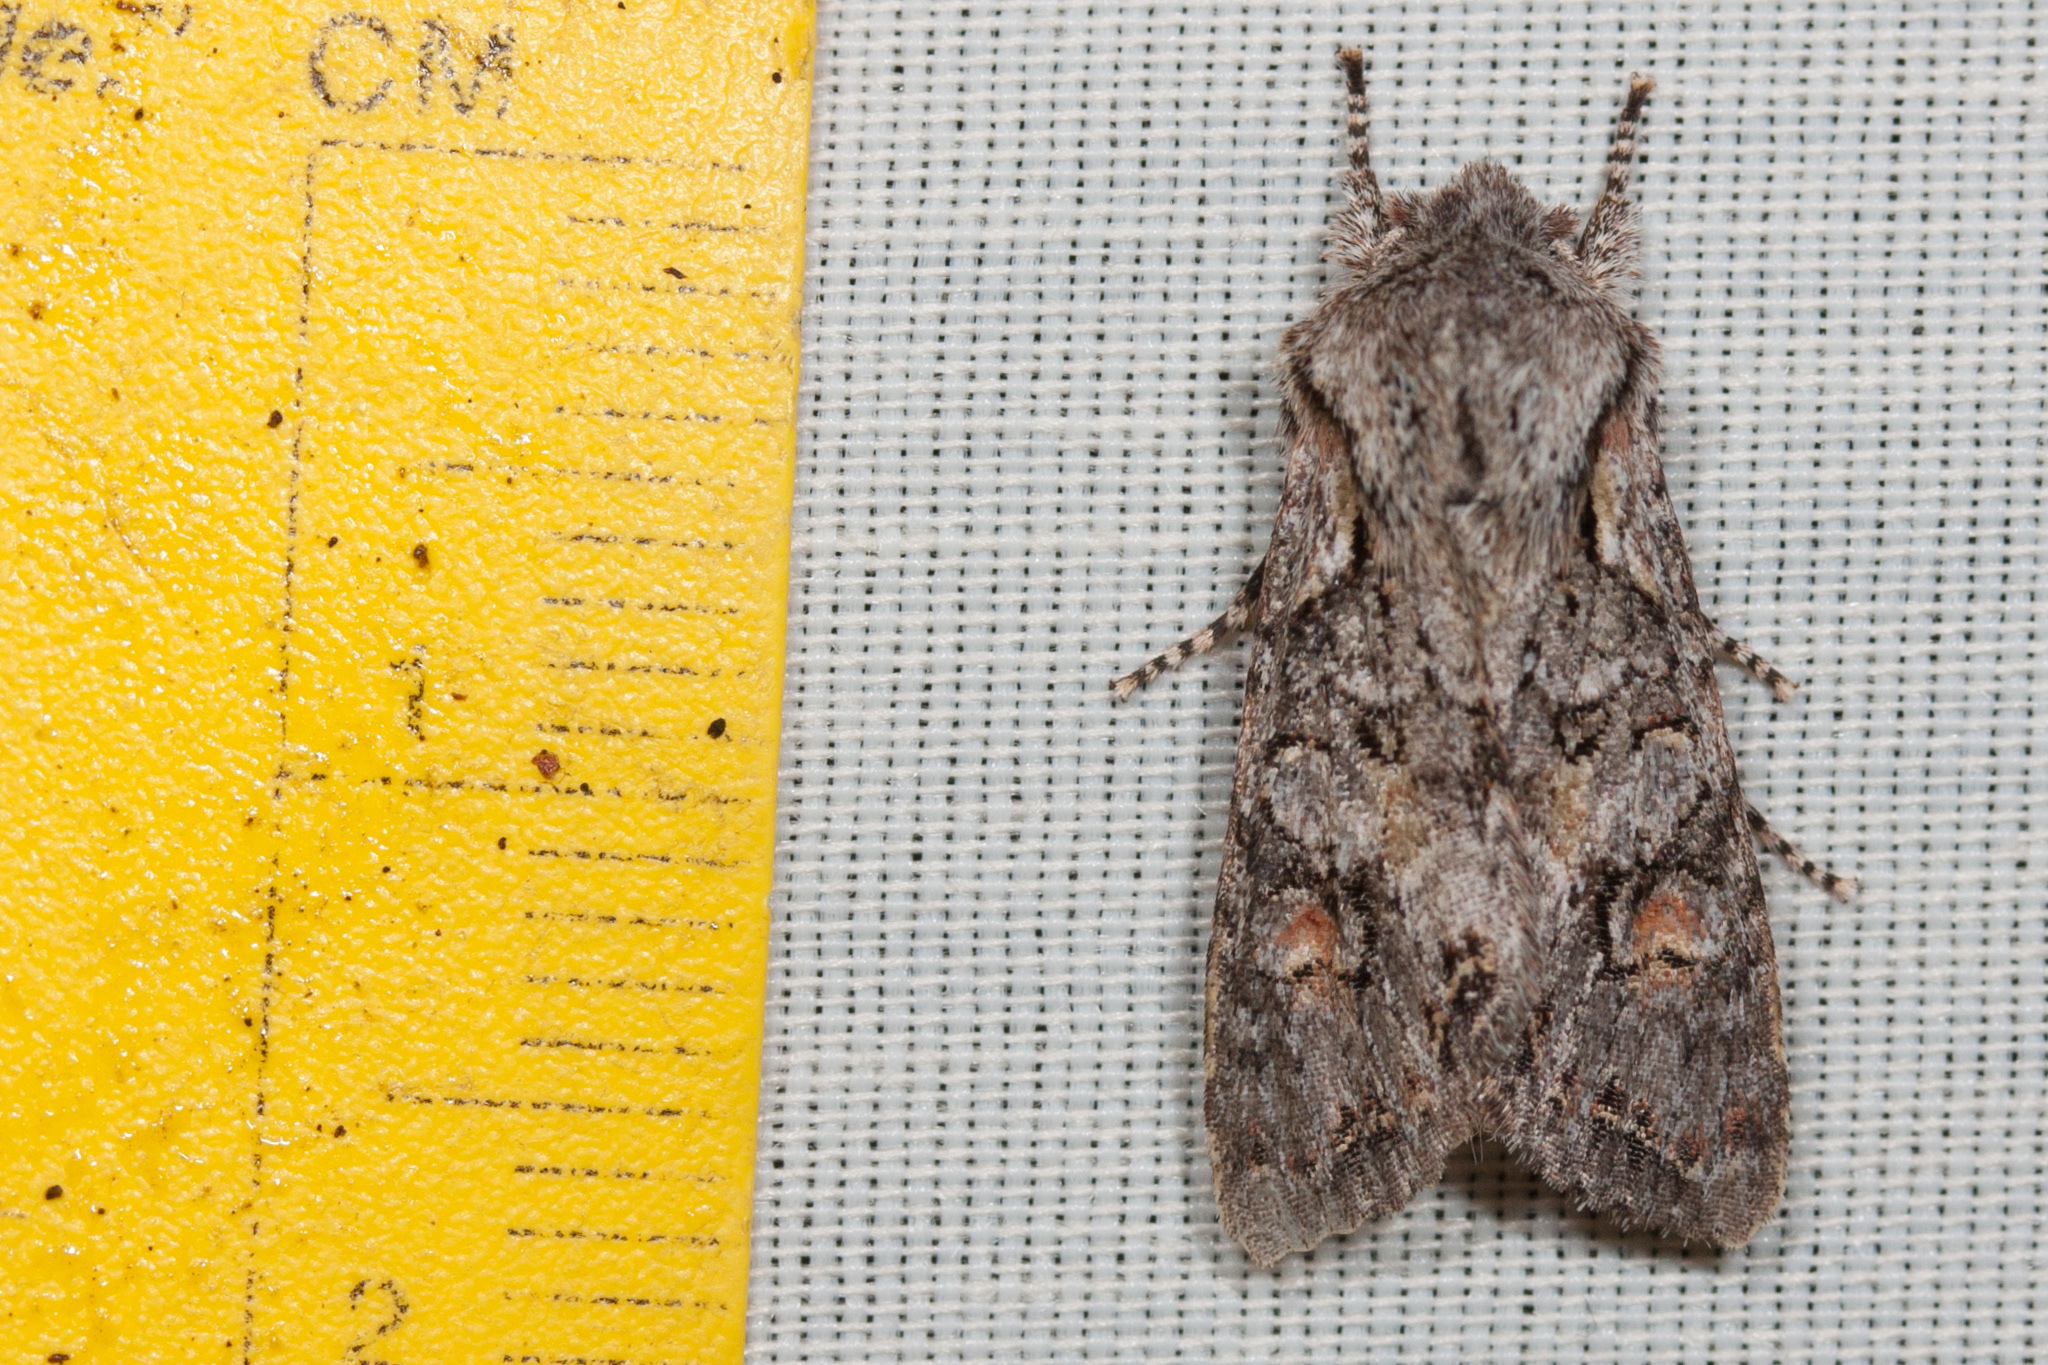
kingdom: Animalia
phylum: Arthropoda
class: Insecta
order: Lepidoptera
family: Noctuidae
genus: Egira
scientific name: Egira hiemalis
